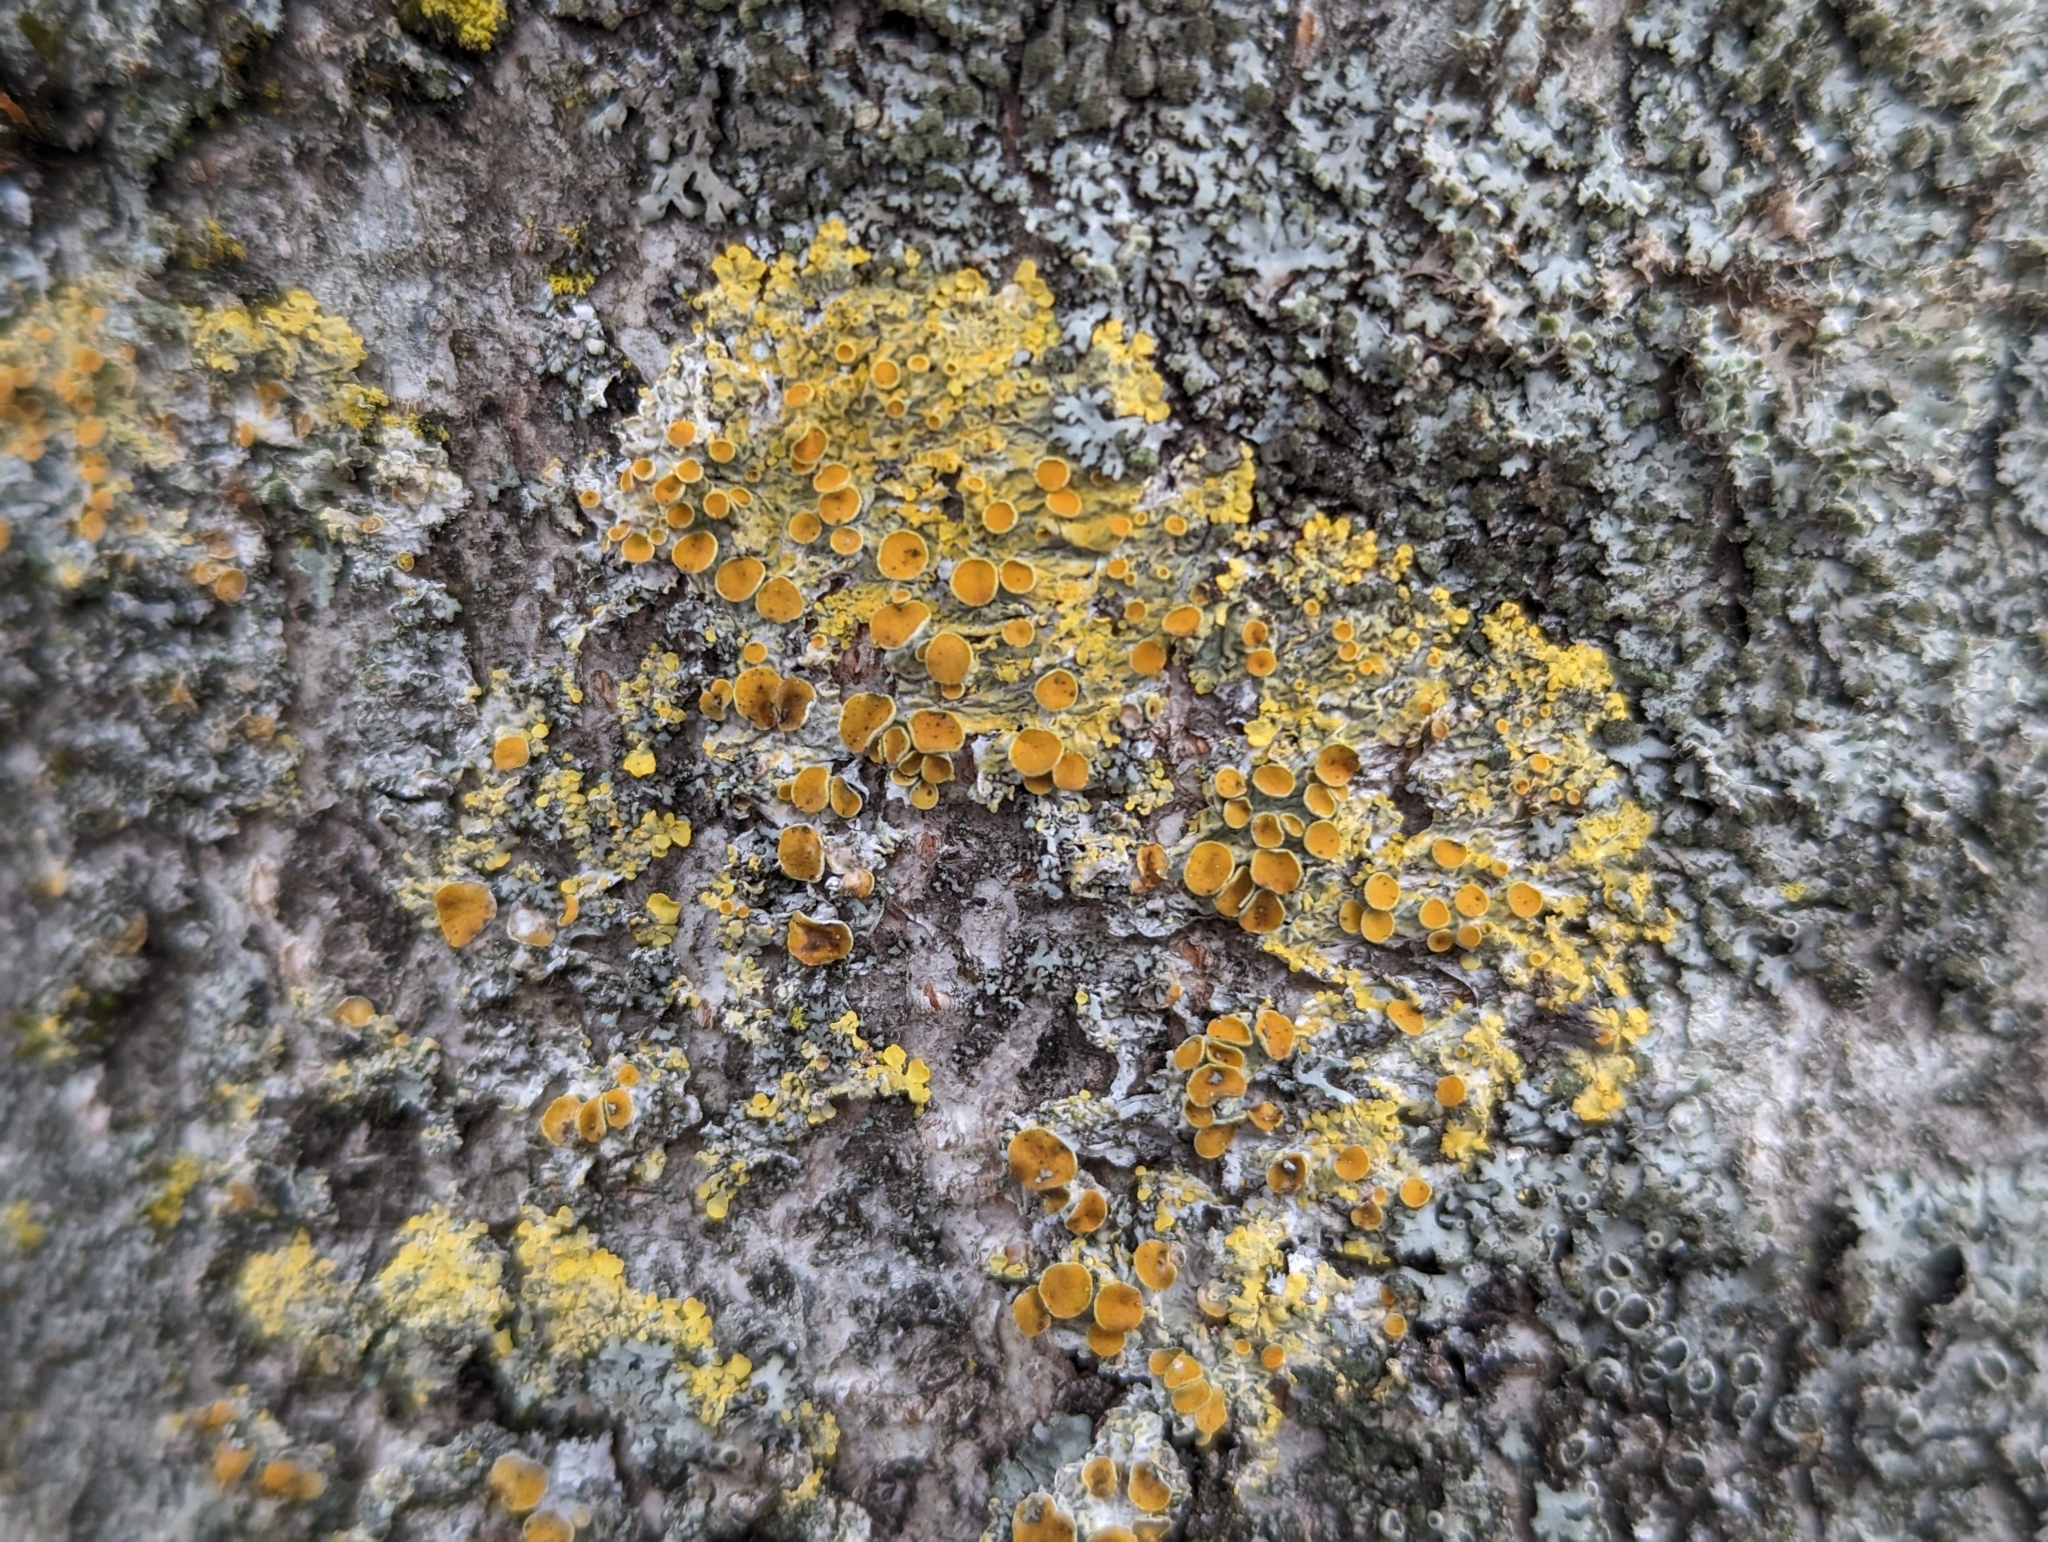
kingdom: Fungi
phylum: Ascomycota
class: Lecanoromycetes
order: Teloschistales
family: Teloschistaceae
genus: Xanthoria
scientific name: Xanthoria parietina
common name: Common orange lichen
